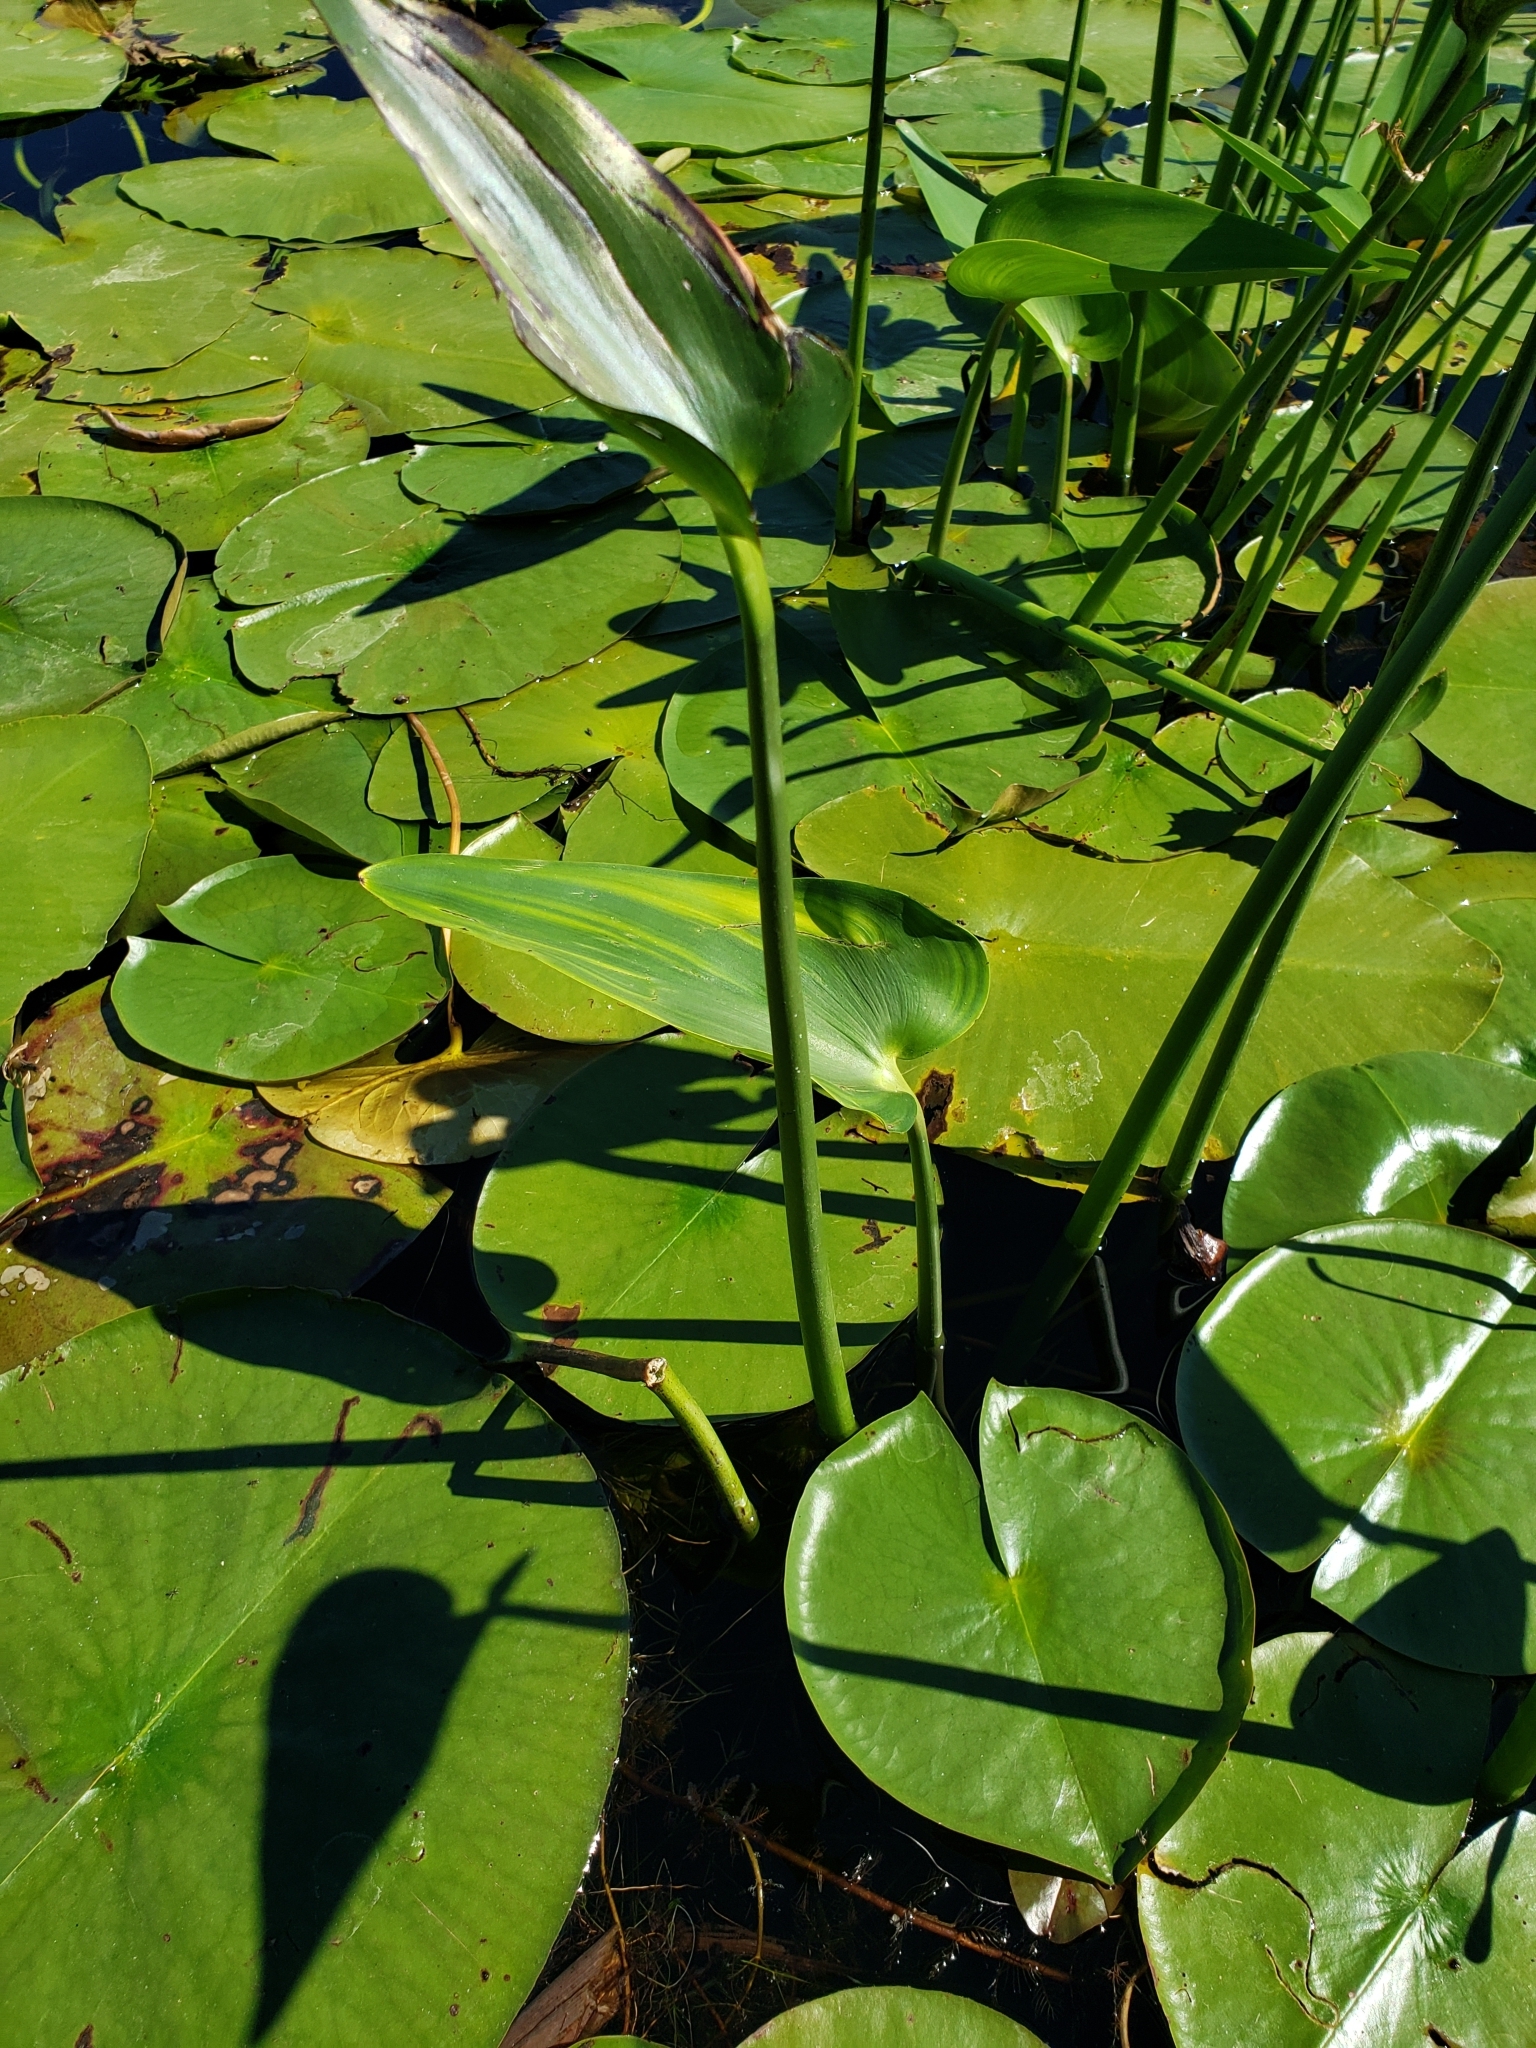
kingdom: Plantae
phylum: Tracheophyta
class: Liliopsida
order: Commelinales
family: Pontederiaceae
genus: Pontederia
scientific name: Pontederia cordata
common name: Pickerelweed
